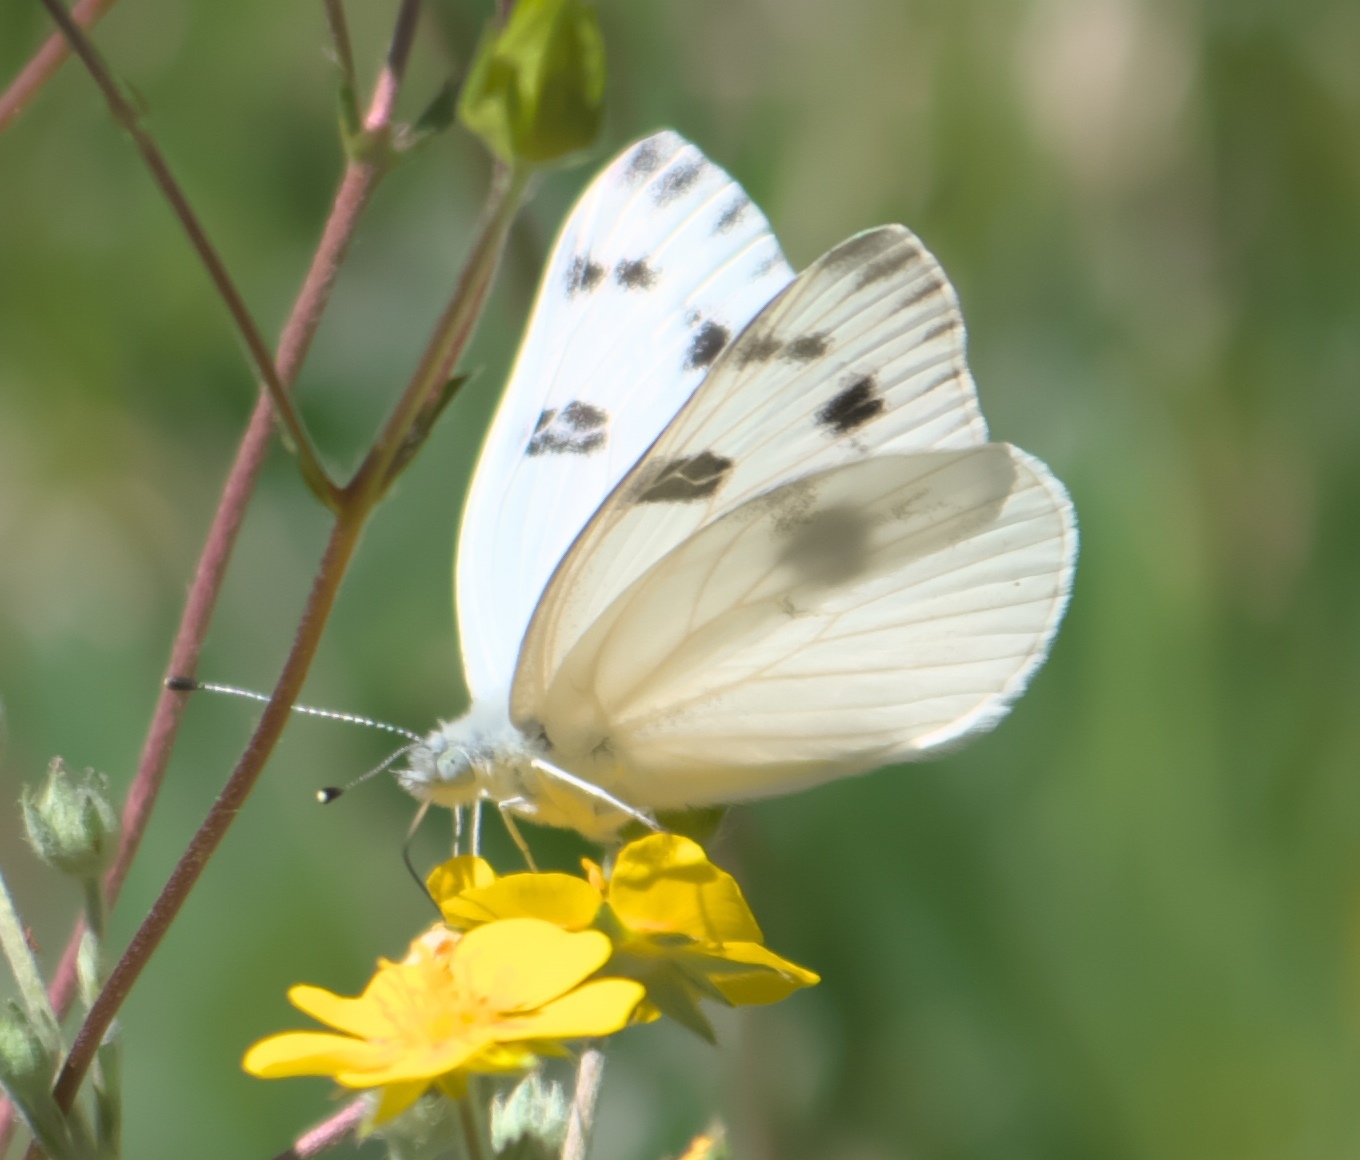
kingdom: Animalia
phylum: Arthropoda
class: Insecta
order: Lepidoptera
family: Pieridae
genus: Pontia
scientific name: Pontia protodice
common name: Checkered white
